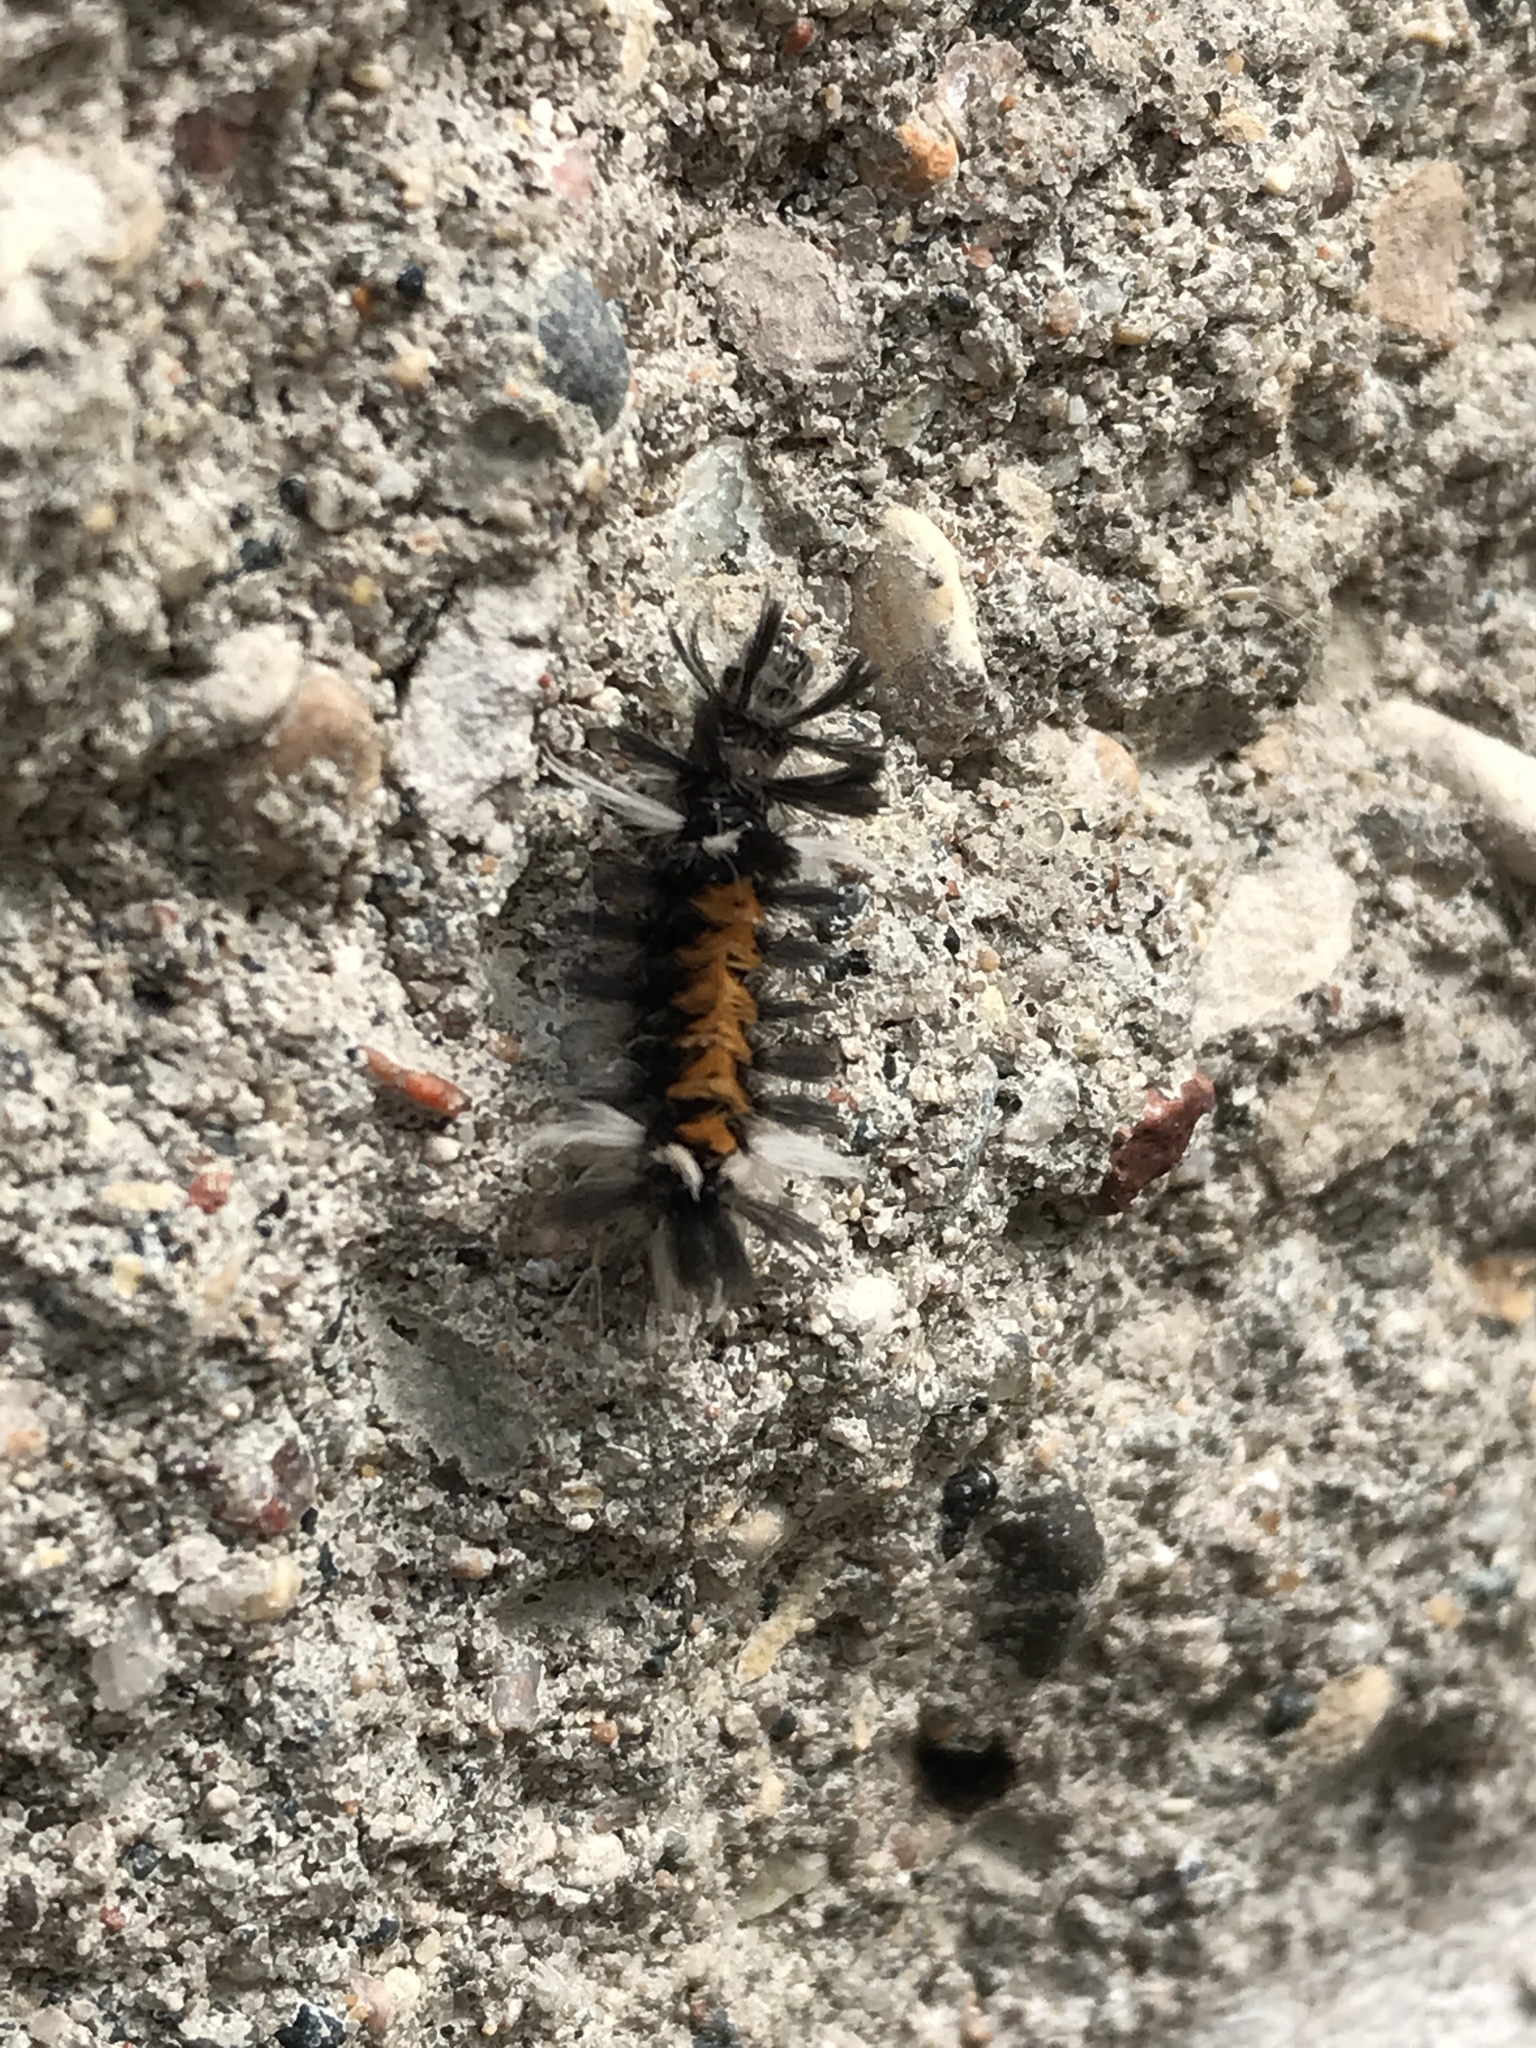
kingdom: Animalia
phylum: Arthropoda
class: Insecta
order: Lepidoptera
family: Erebidae
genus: Euchaetes
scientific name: Euchaetes egle
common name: Milkweed tussock moth
